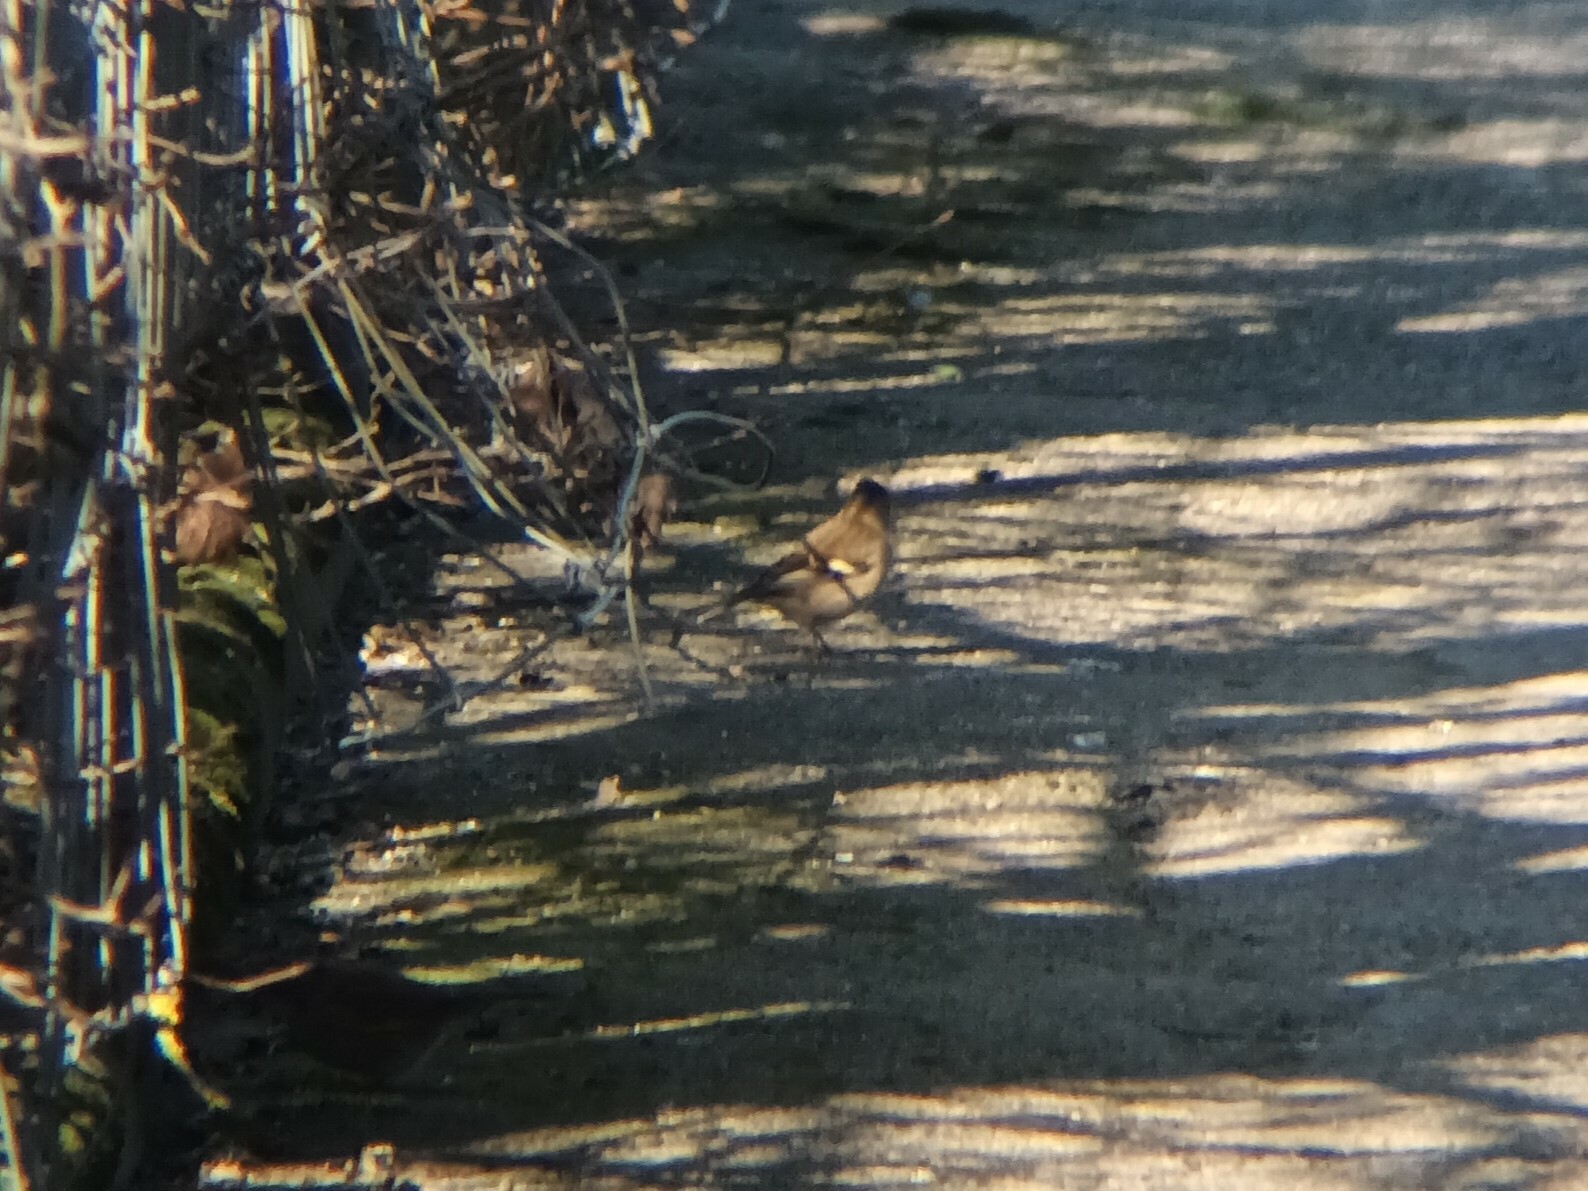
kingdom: Animalia
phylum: Chordata
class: Aves
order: Passeriformes
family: Fringillidae
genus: Fringilla
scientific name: Fringilla coelebs
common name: Common chaffinch
